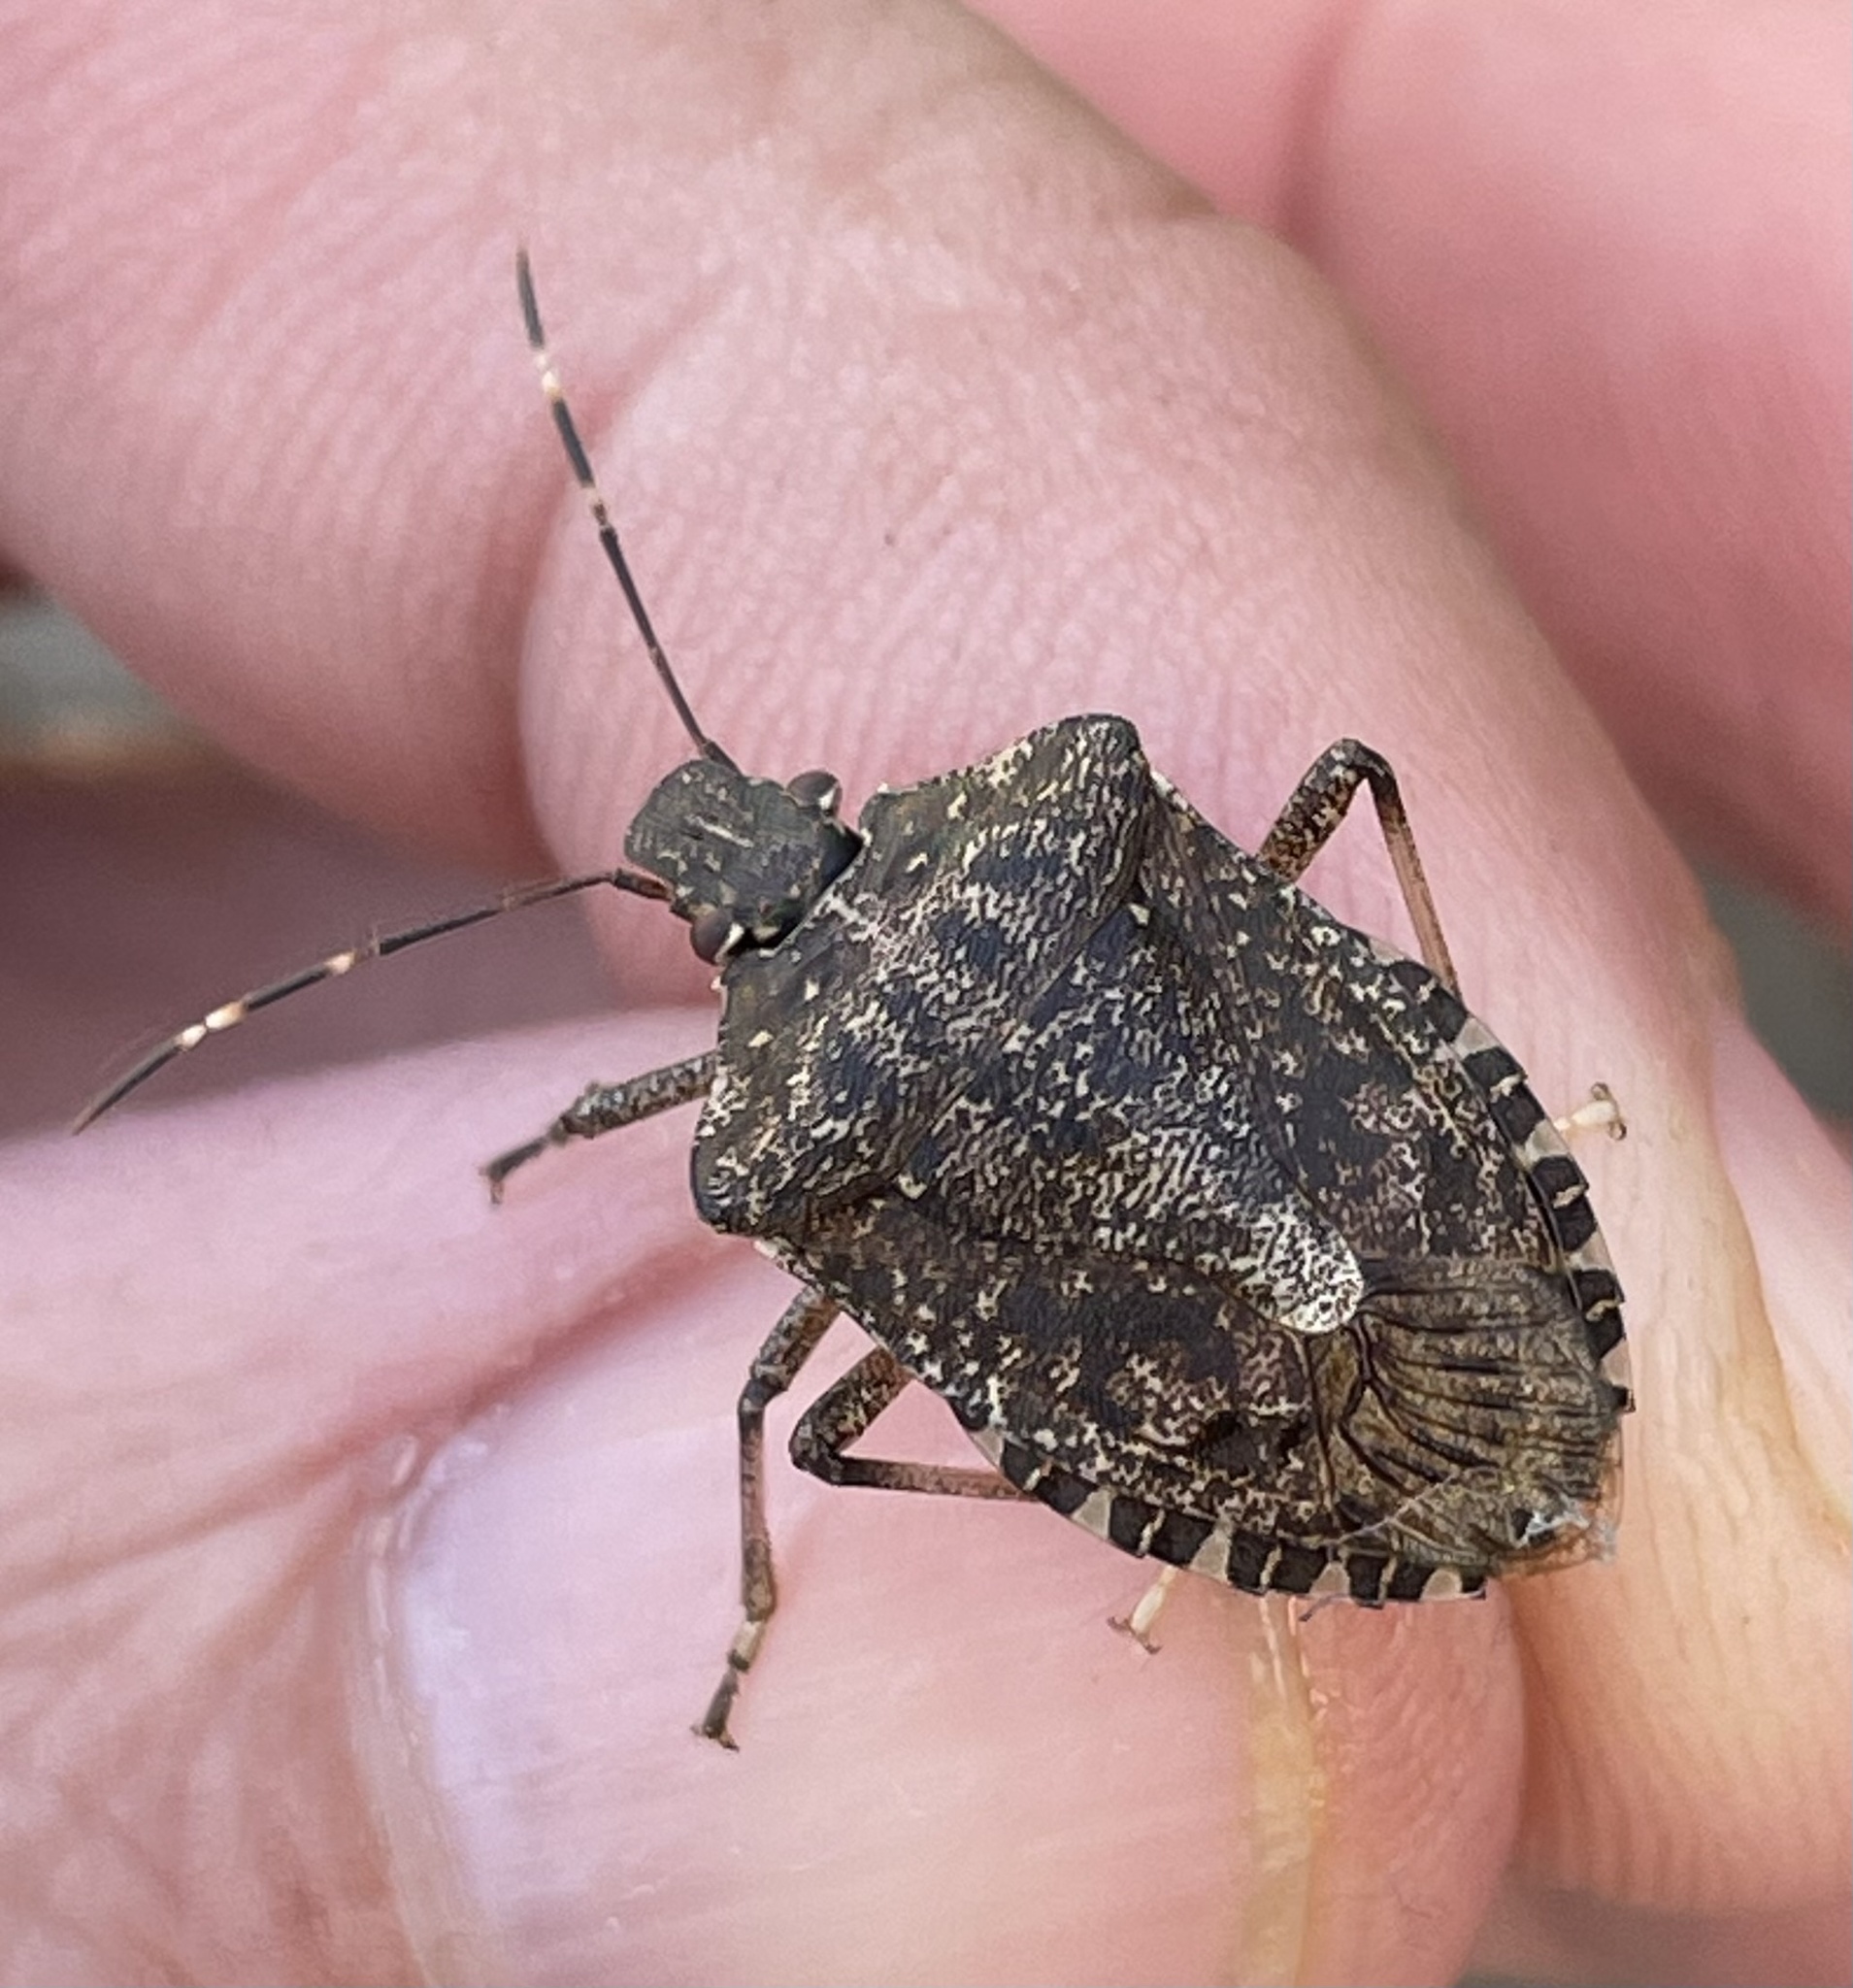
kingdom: Animalia
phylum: Arthropoda
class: Insecta
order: Hemiptera
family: Pentatomidae
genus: Halyomorpha
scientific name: Halyomorpha halys
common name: Brown marmorated stink bug
